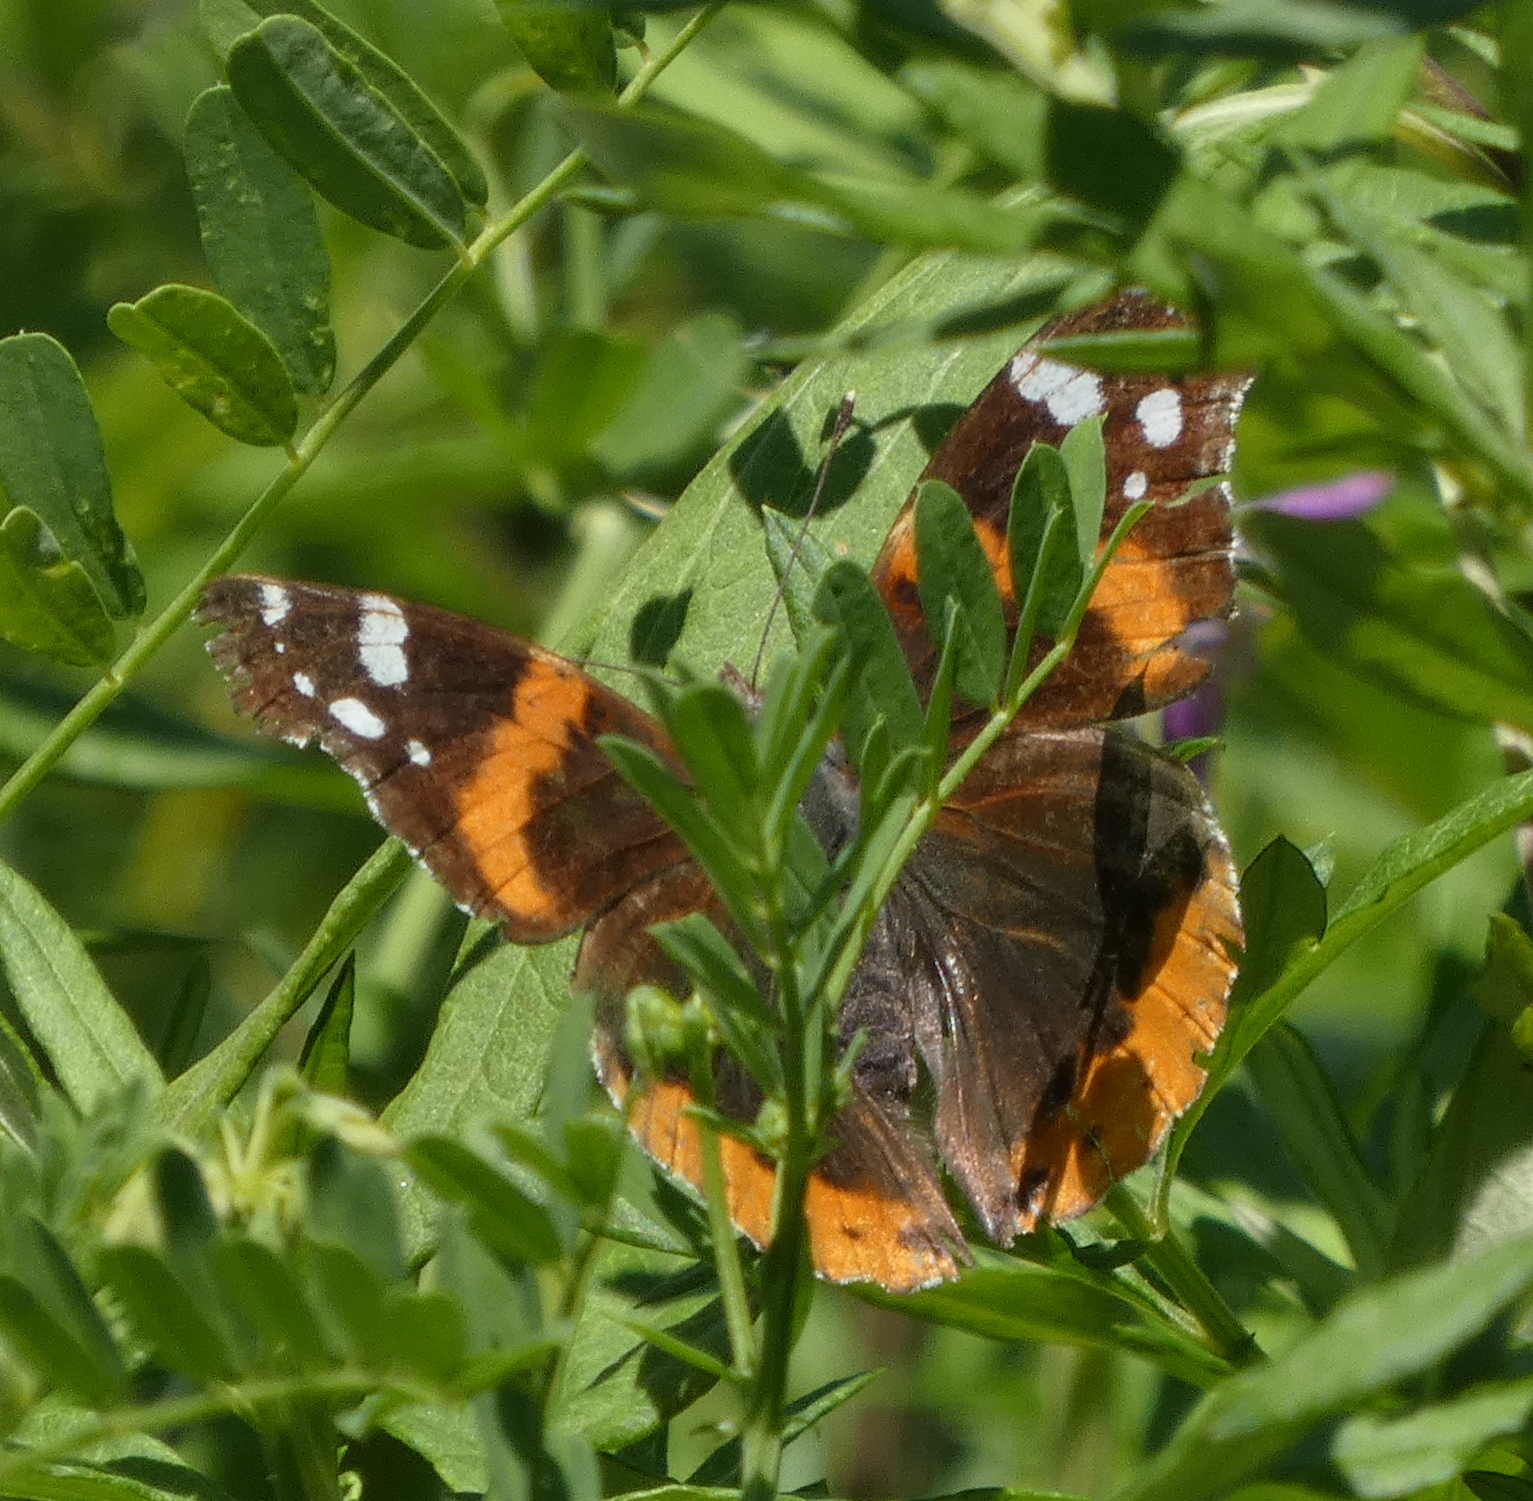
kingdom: Animalia
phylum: Arthropoda
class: Insecta
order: Lepidoptera
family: Nymphalidae
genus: Vanessa
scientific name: Vanessa atalanta
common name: Red admiral
